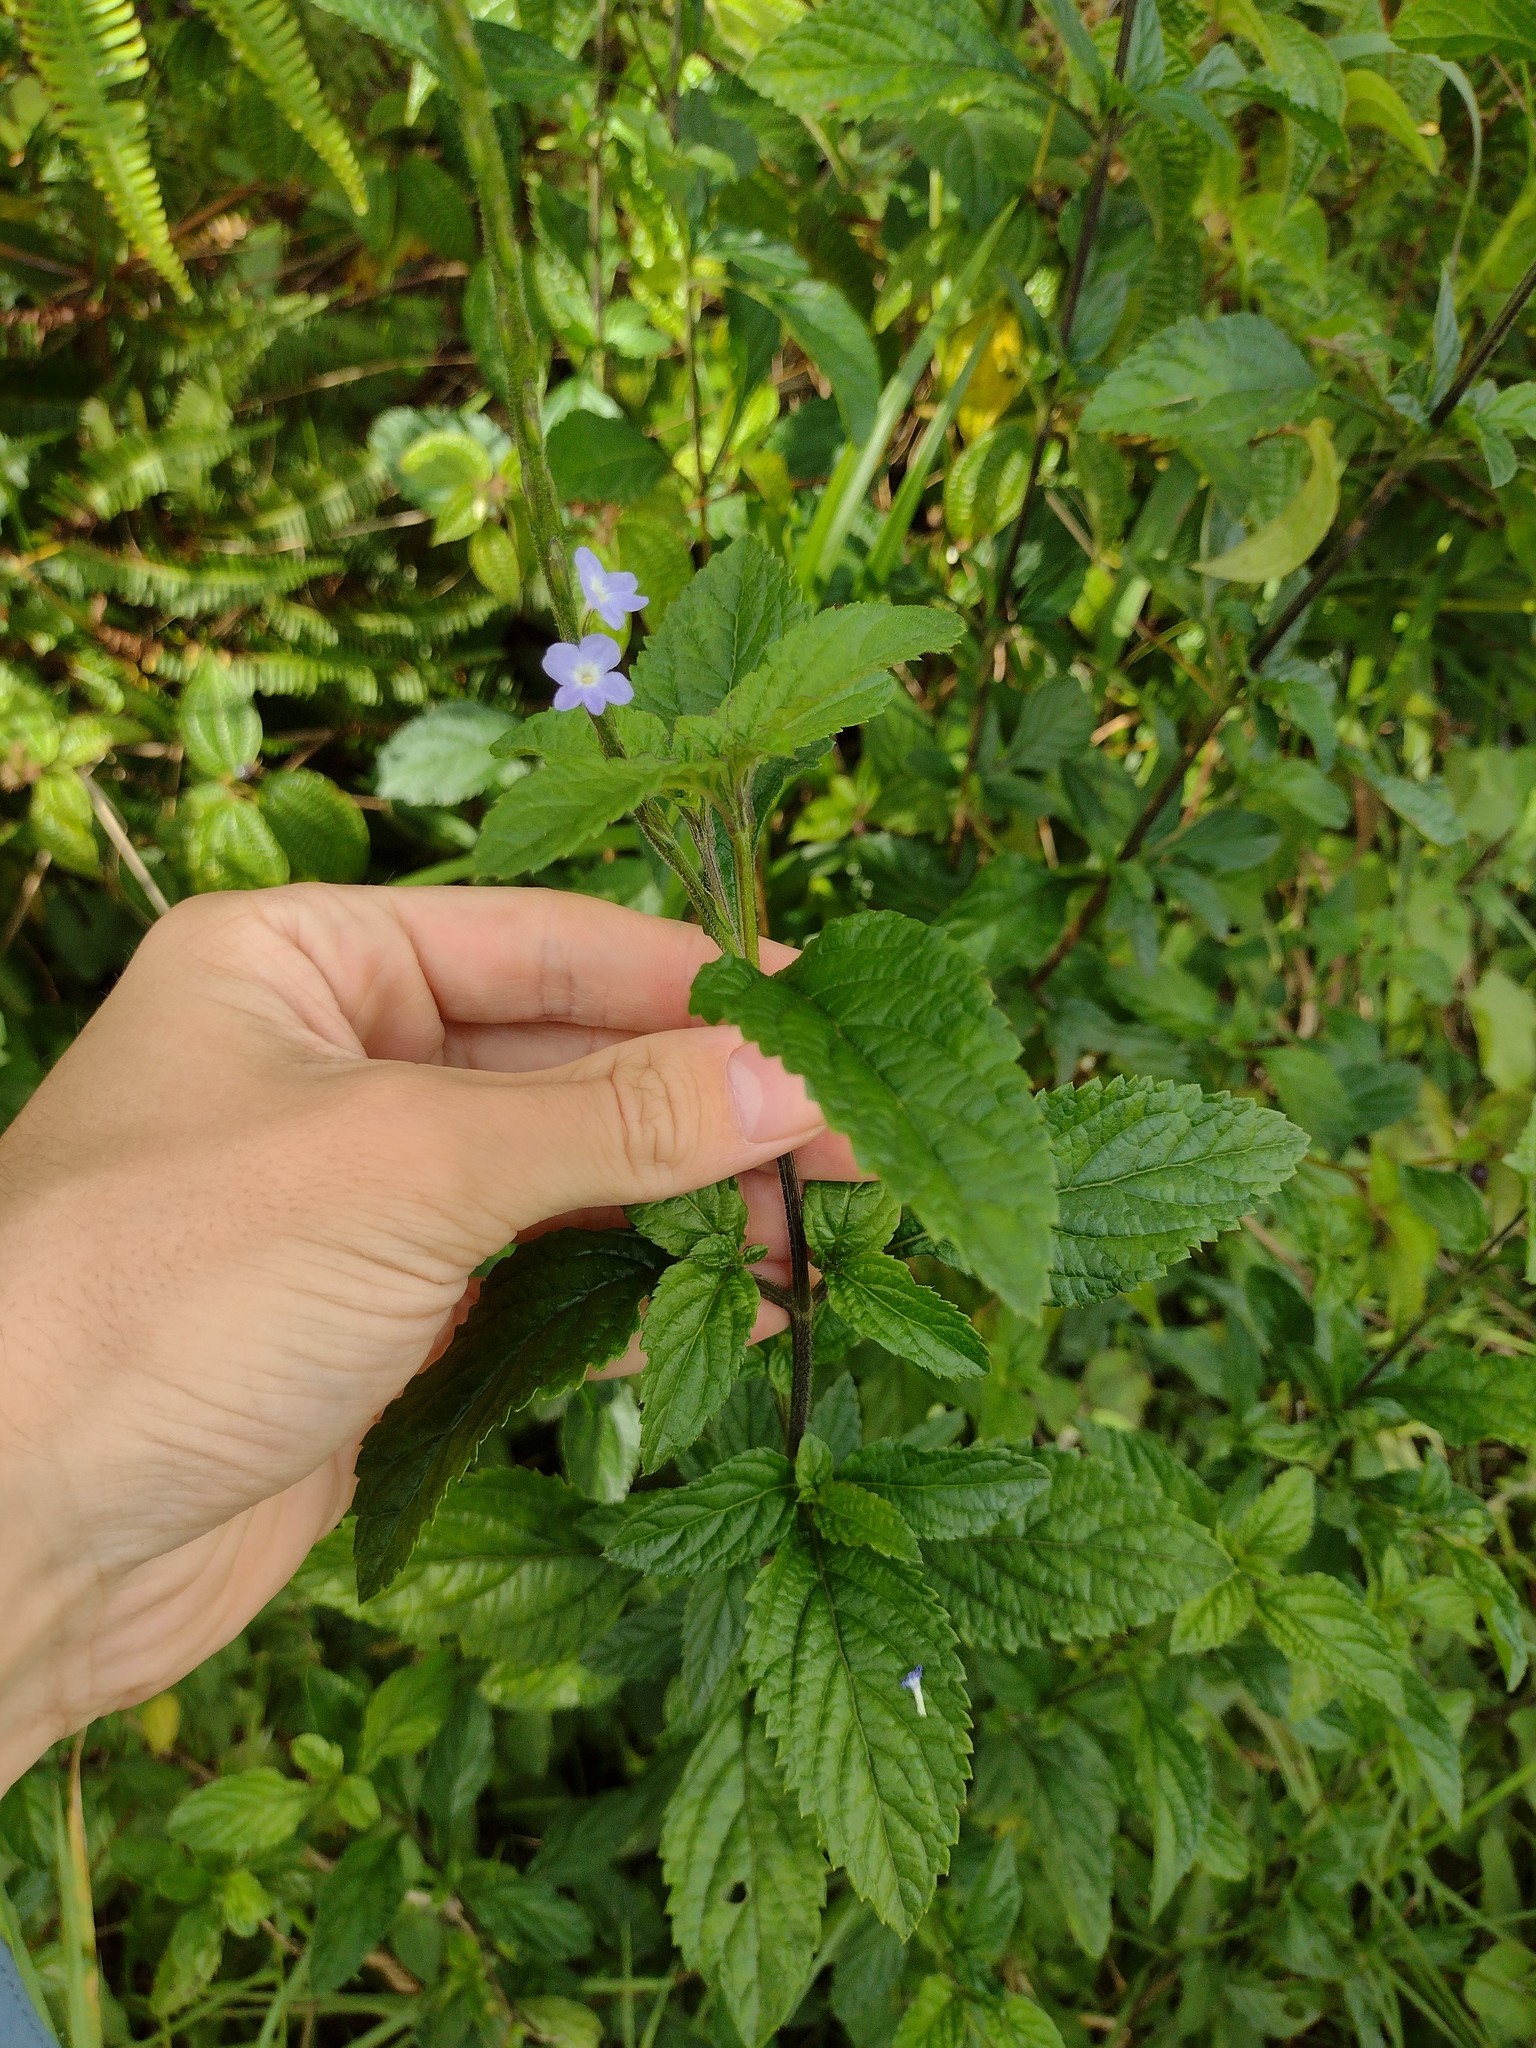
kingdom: Plantae
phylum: Tracheophyta
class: Magnoliopsida
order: Lamiales
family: Verbenaceae
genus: Stachytarpheta
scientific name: Stachytarpheta cayennensis
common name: Cayenne porterweed
